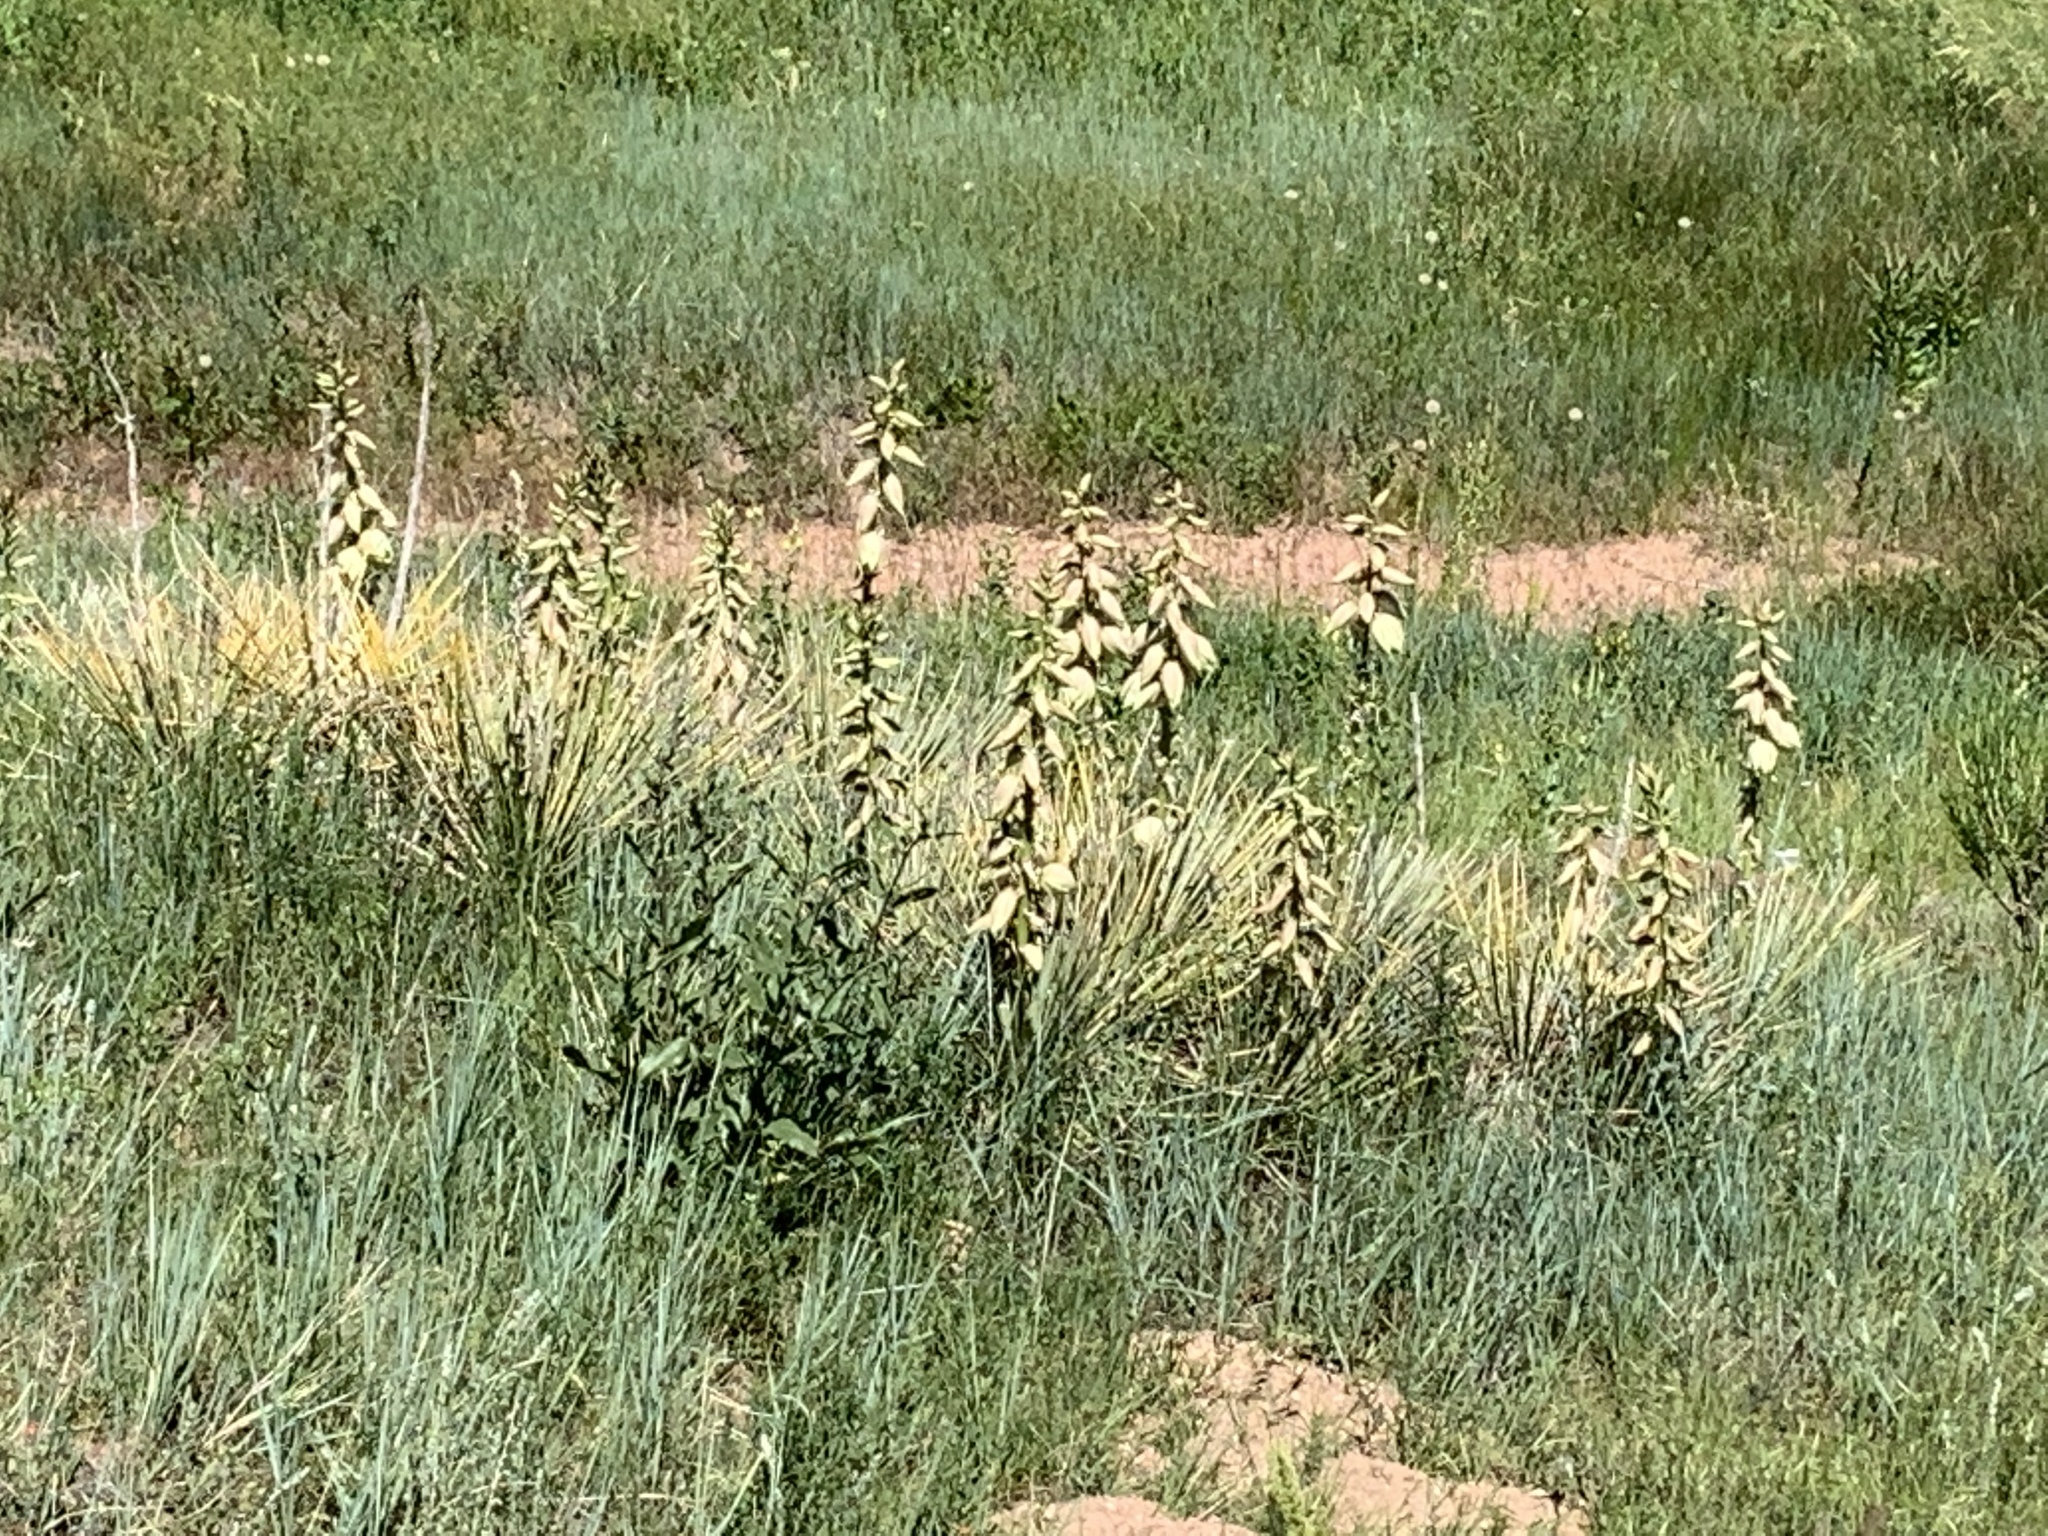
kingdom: Plantae
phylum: Tracheophyta
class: Liliopsida
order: Asparagales
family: Asparagaceae
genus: Yucca
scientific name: Yucca glauca
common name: Great plains yucca
